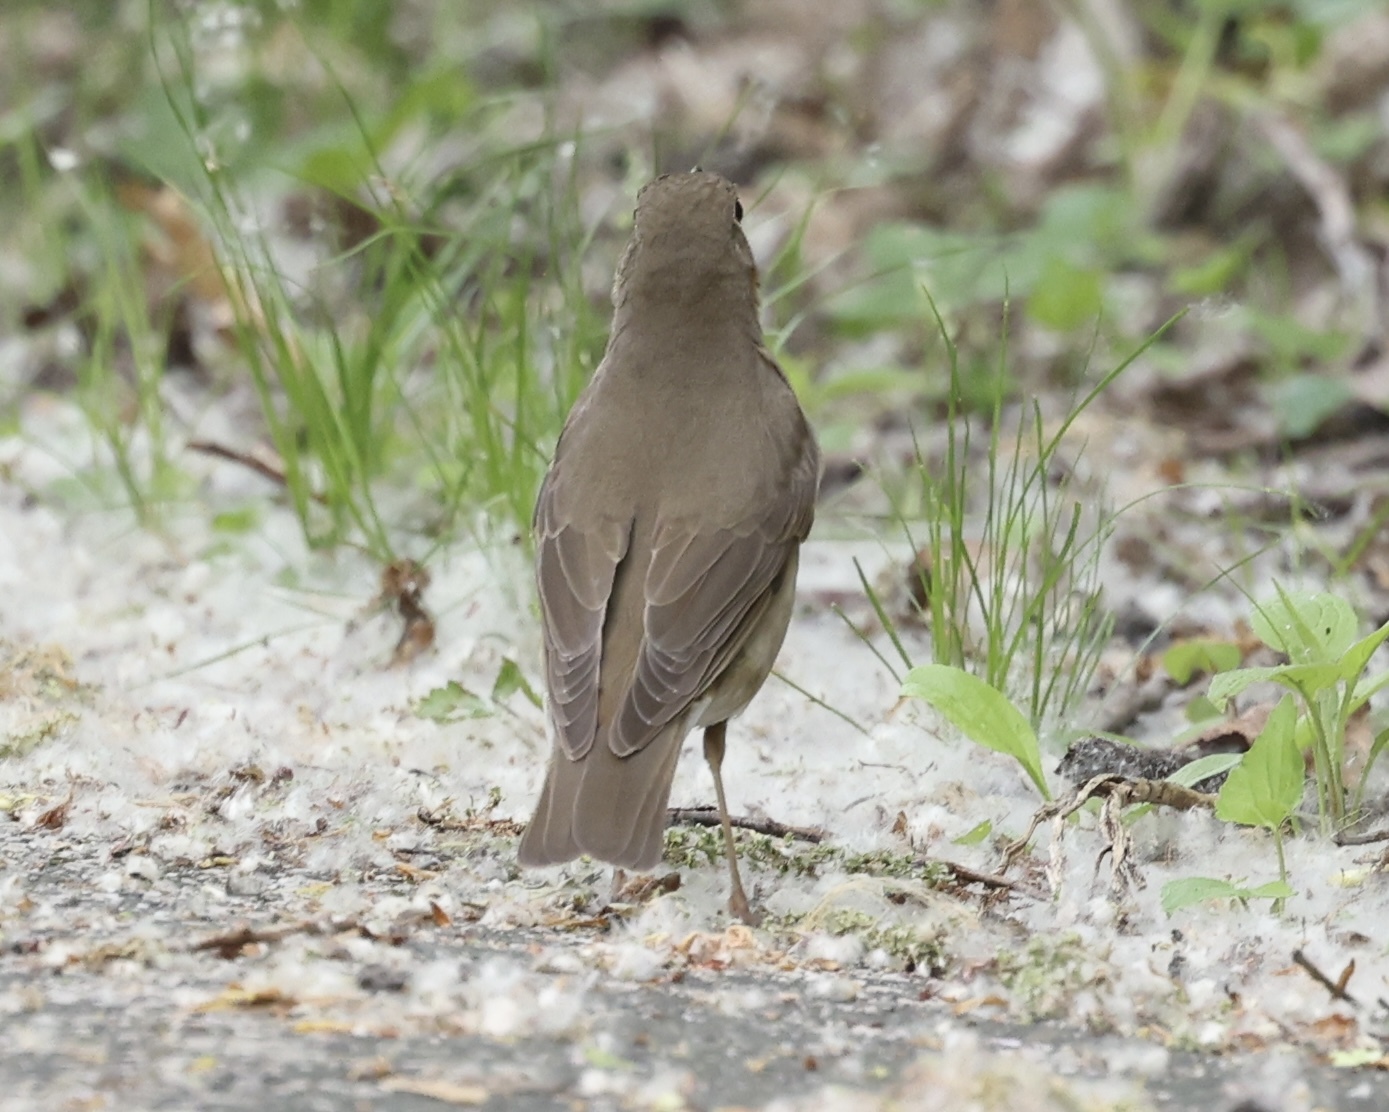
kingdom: Animalia
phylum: Chordata
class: Aves
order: Passeriformes
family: Turdidae
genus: Catharus
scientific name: Catharus ustulatus
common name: Swainson's thrush
